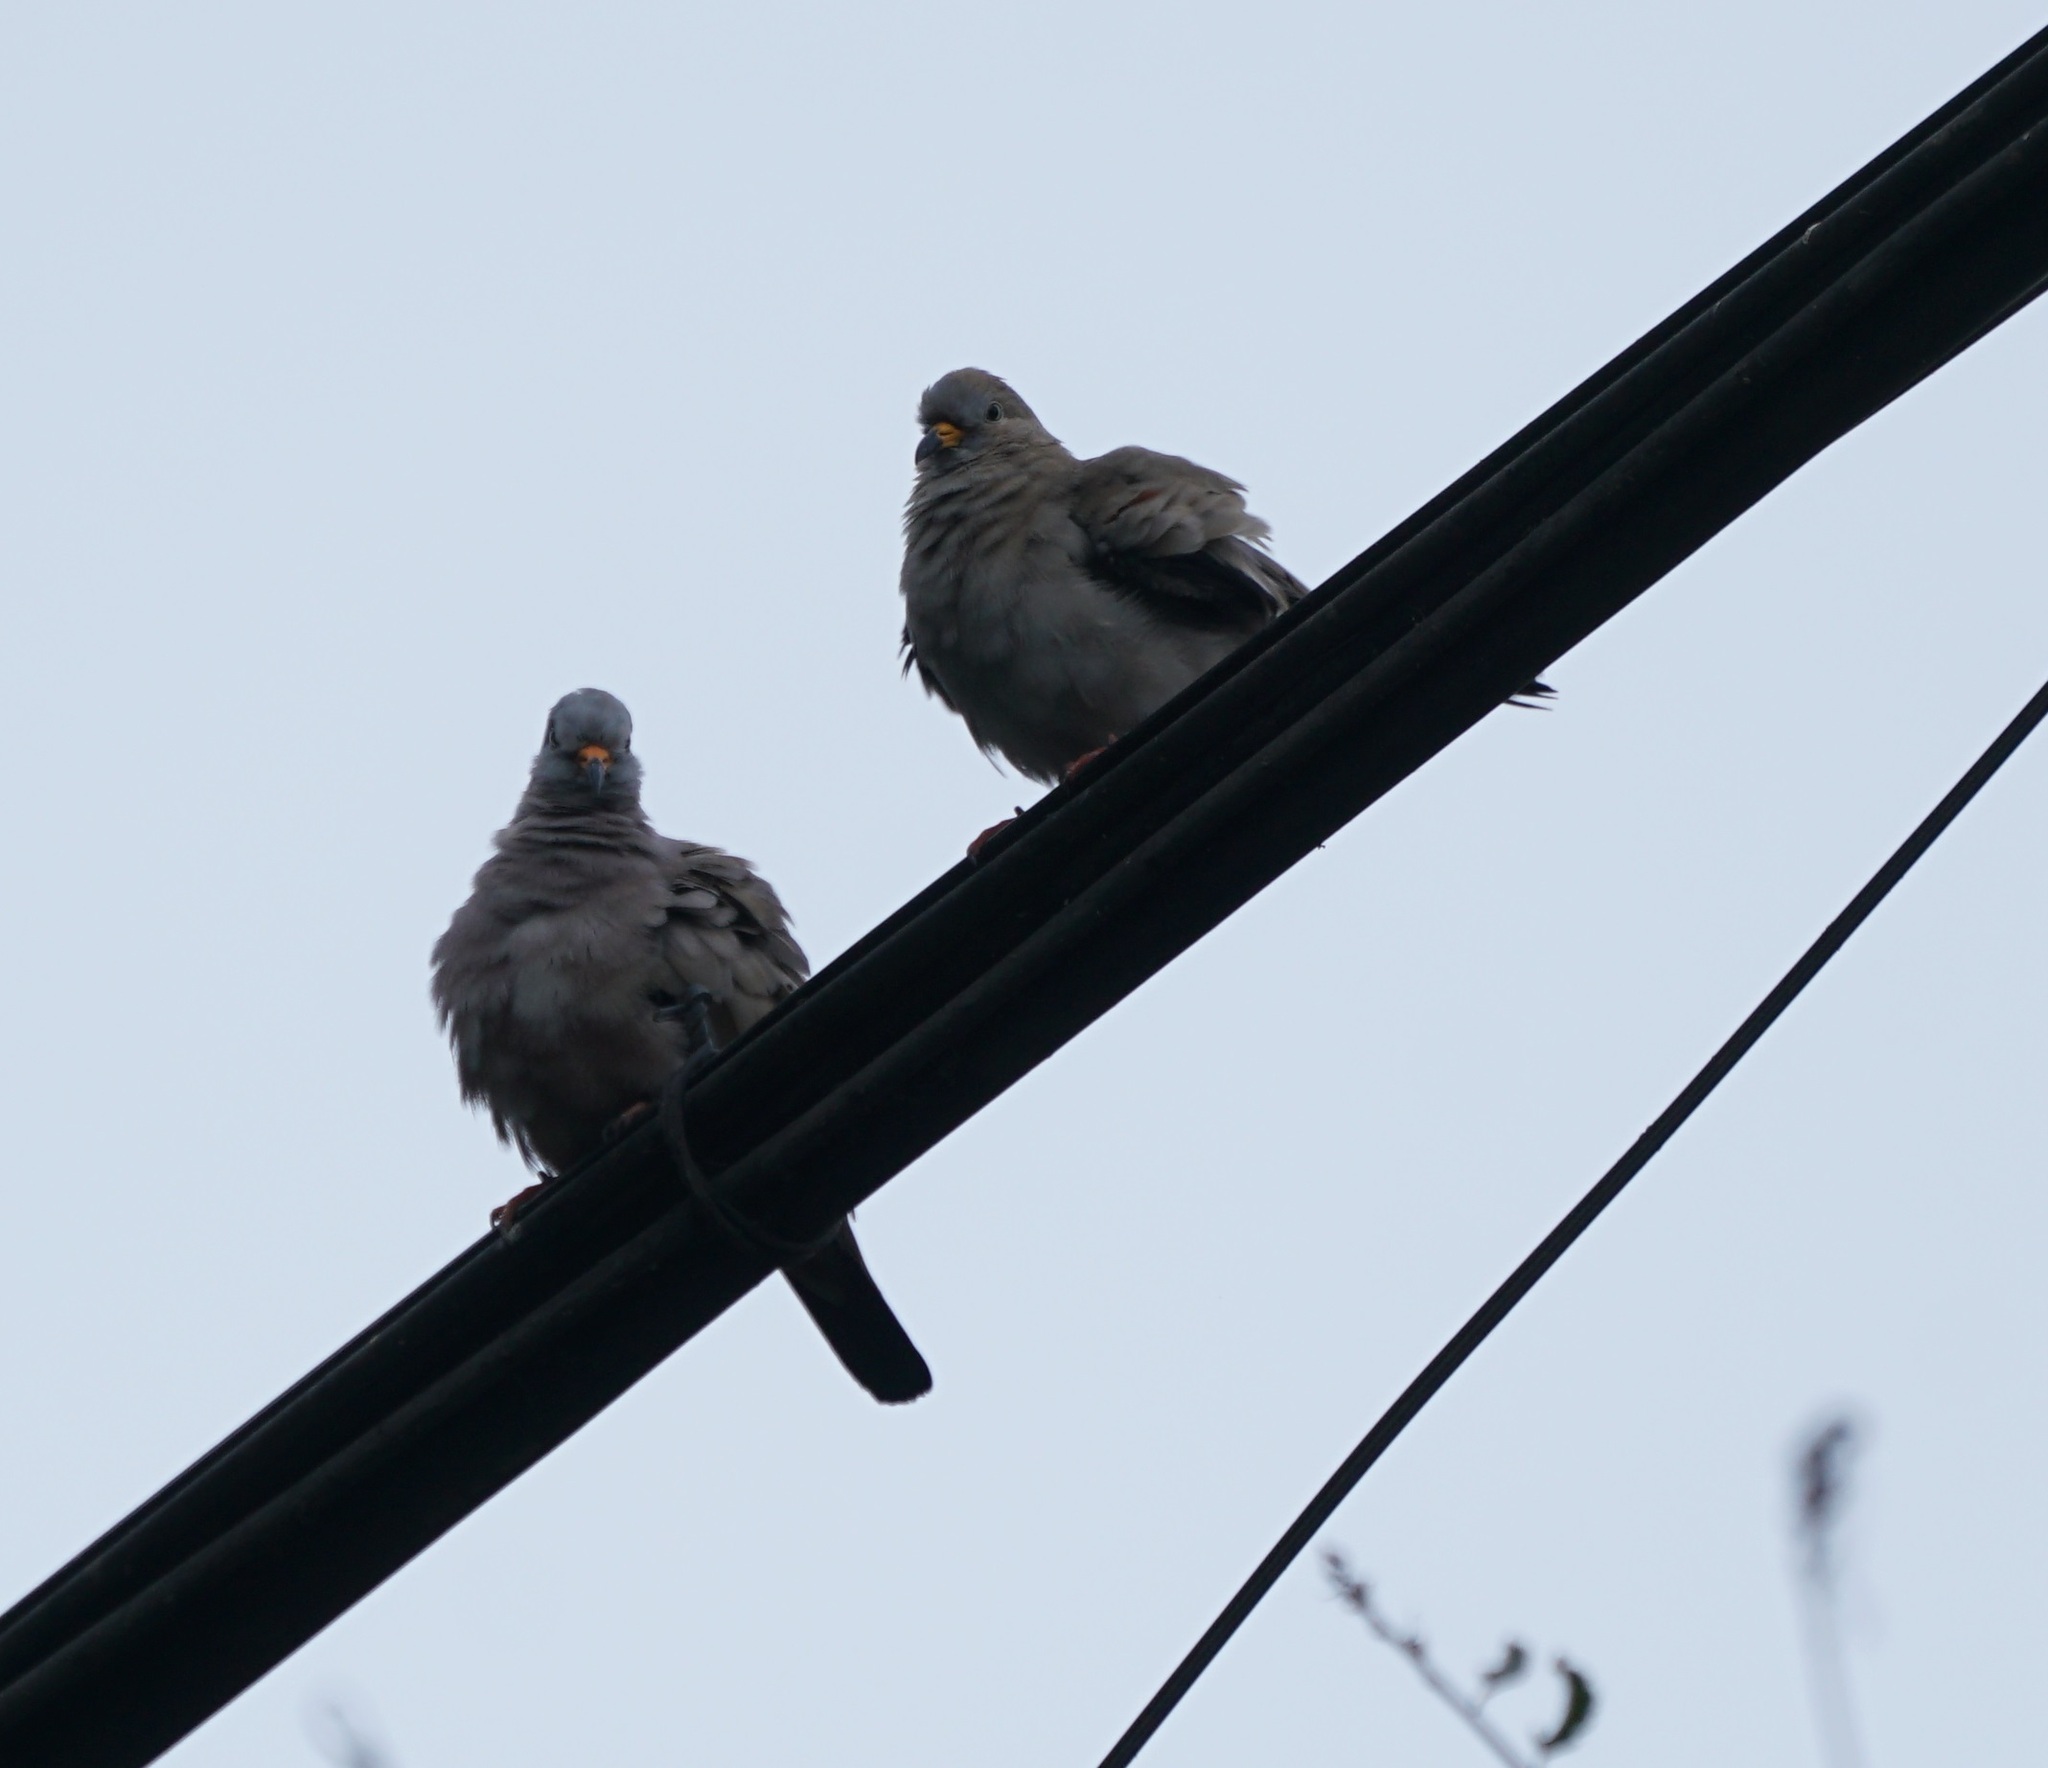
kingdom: Animalia
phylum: Chordata
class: Aves
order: Columbiformes
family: Columbidae
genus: Columbina
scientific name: Columbina cruziana
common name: Croaking ground dove
